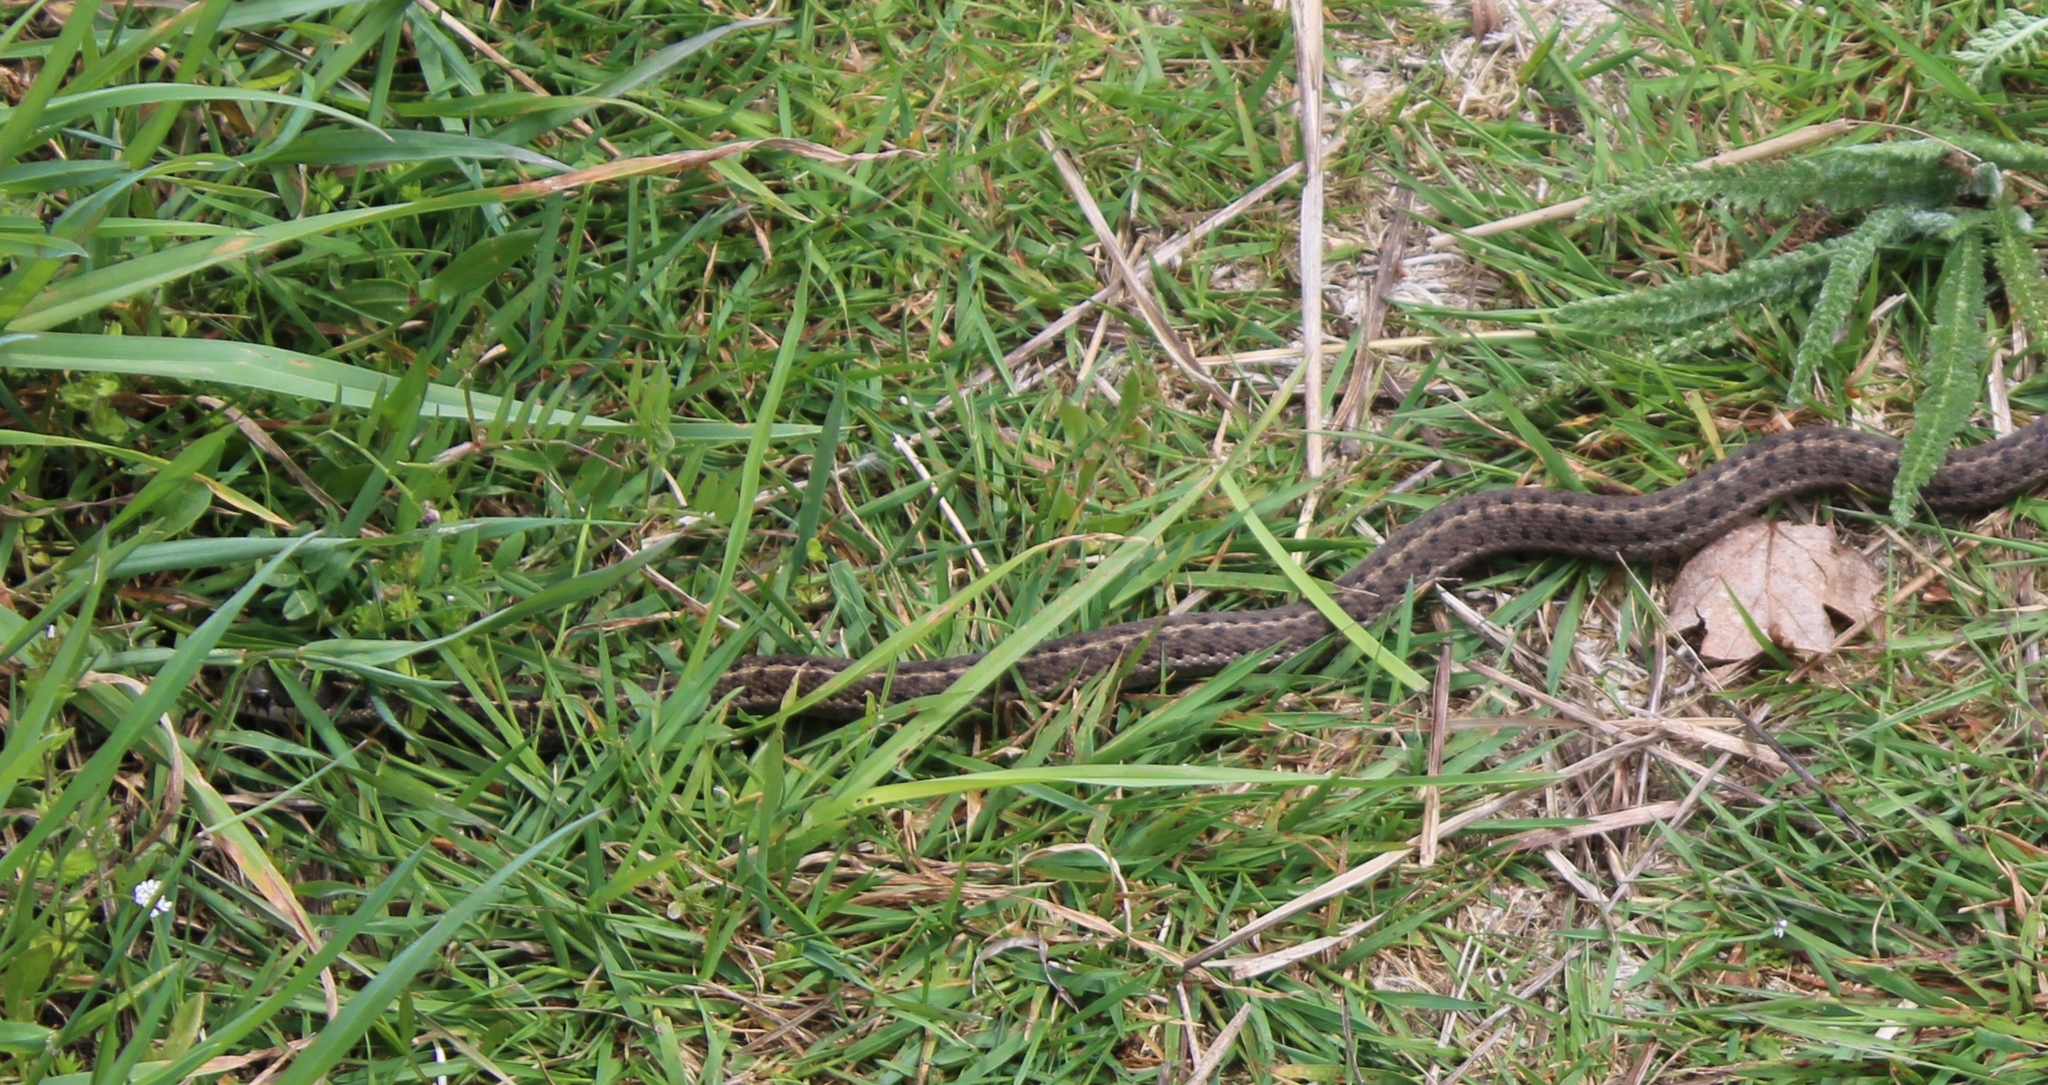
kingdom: Animalia
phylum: Chordata
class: Squamata
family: Colubridae
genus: Thamnophis
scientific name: Thamnophis elegans
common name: Western terrestrial garter snake
